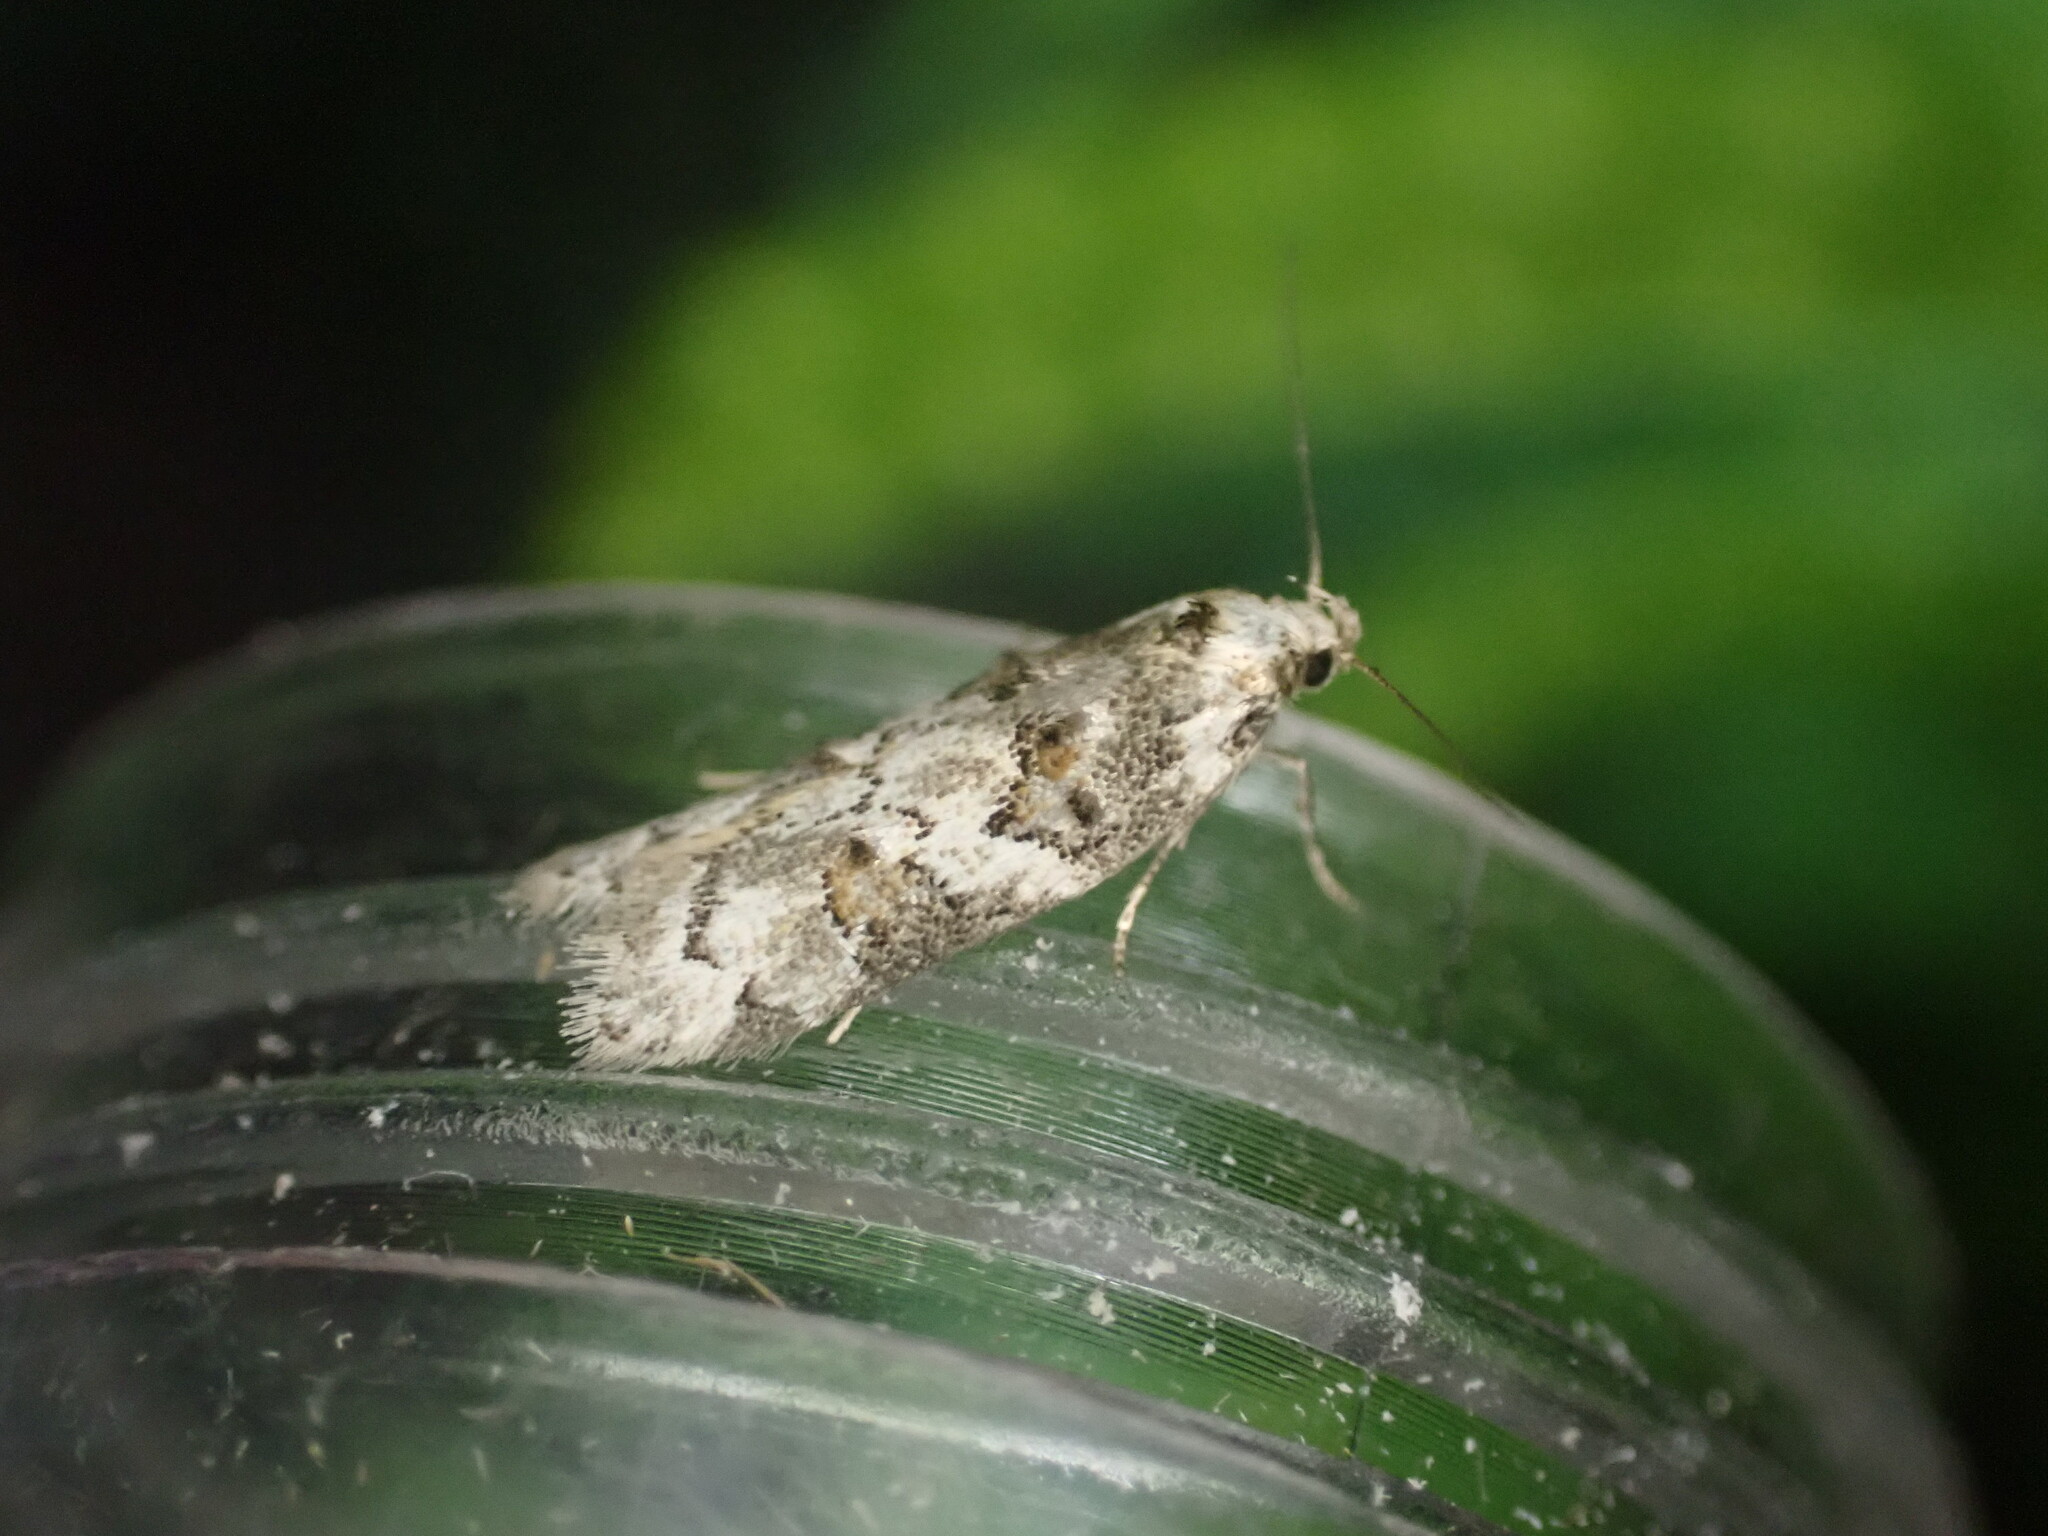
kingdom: Animalia
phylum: Arthropoda
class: Insecta
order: Lepidoptera
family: Oecophoridae
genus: Trachypepla
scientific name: Trachypepla galaxias
